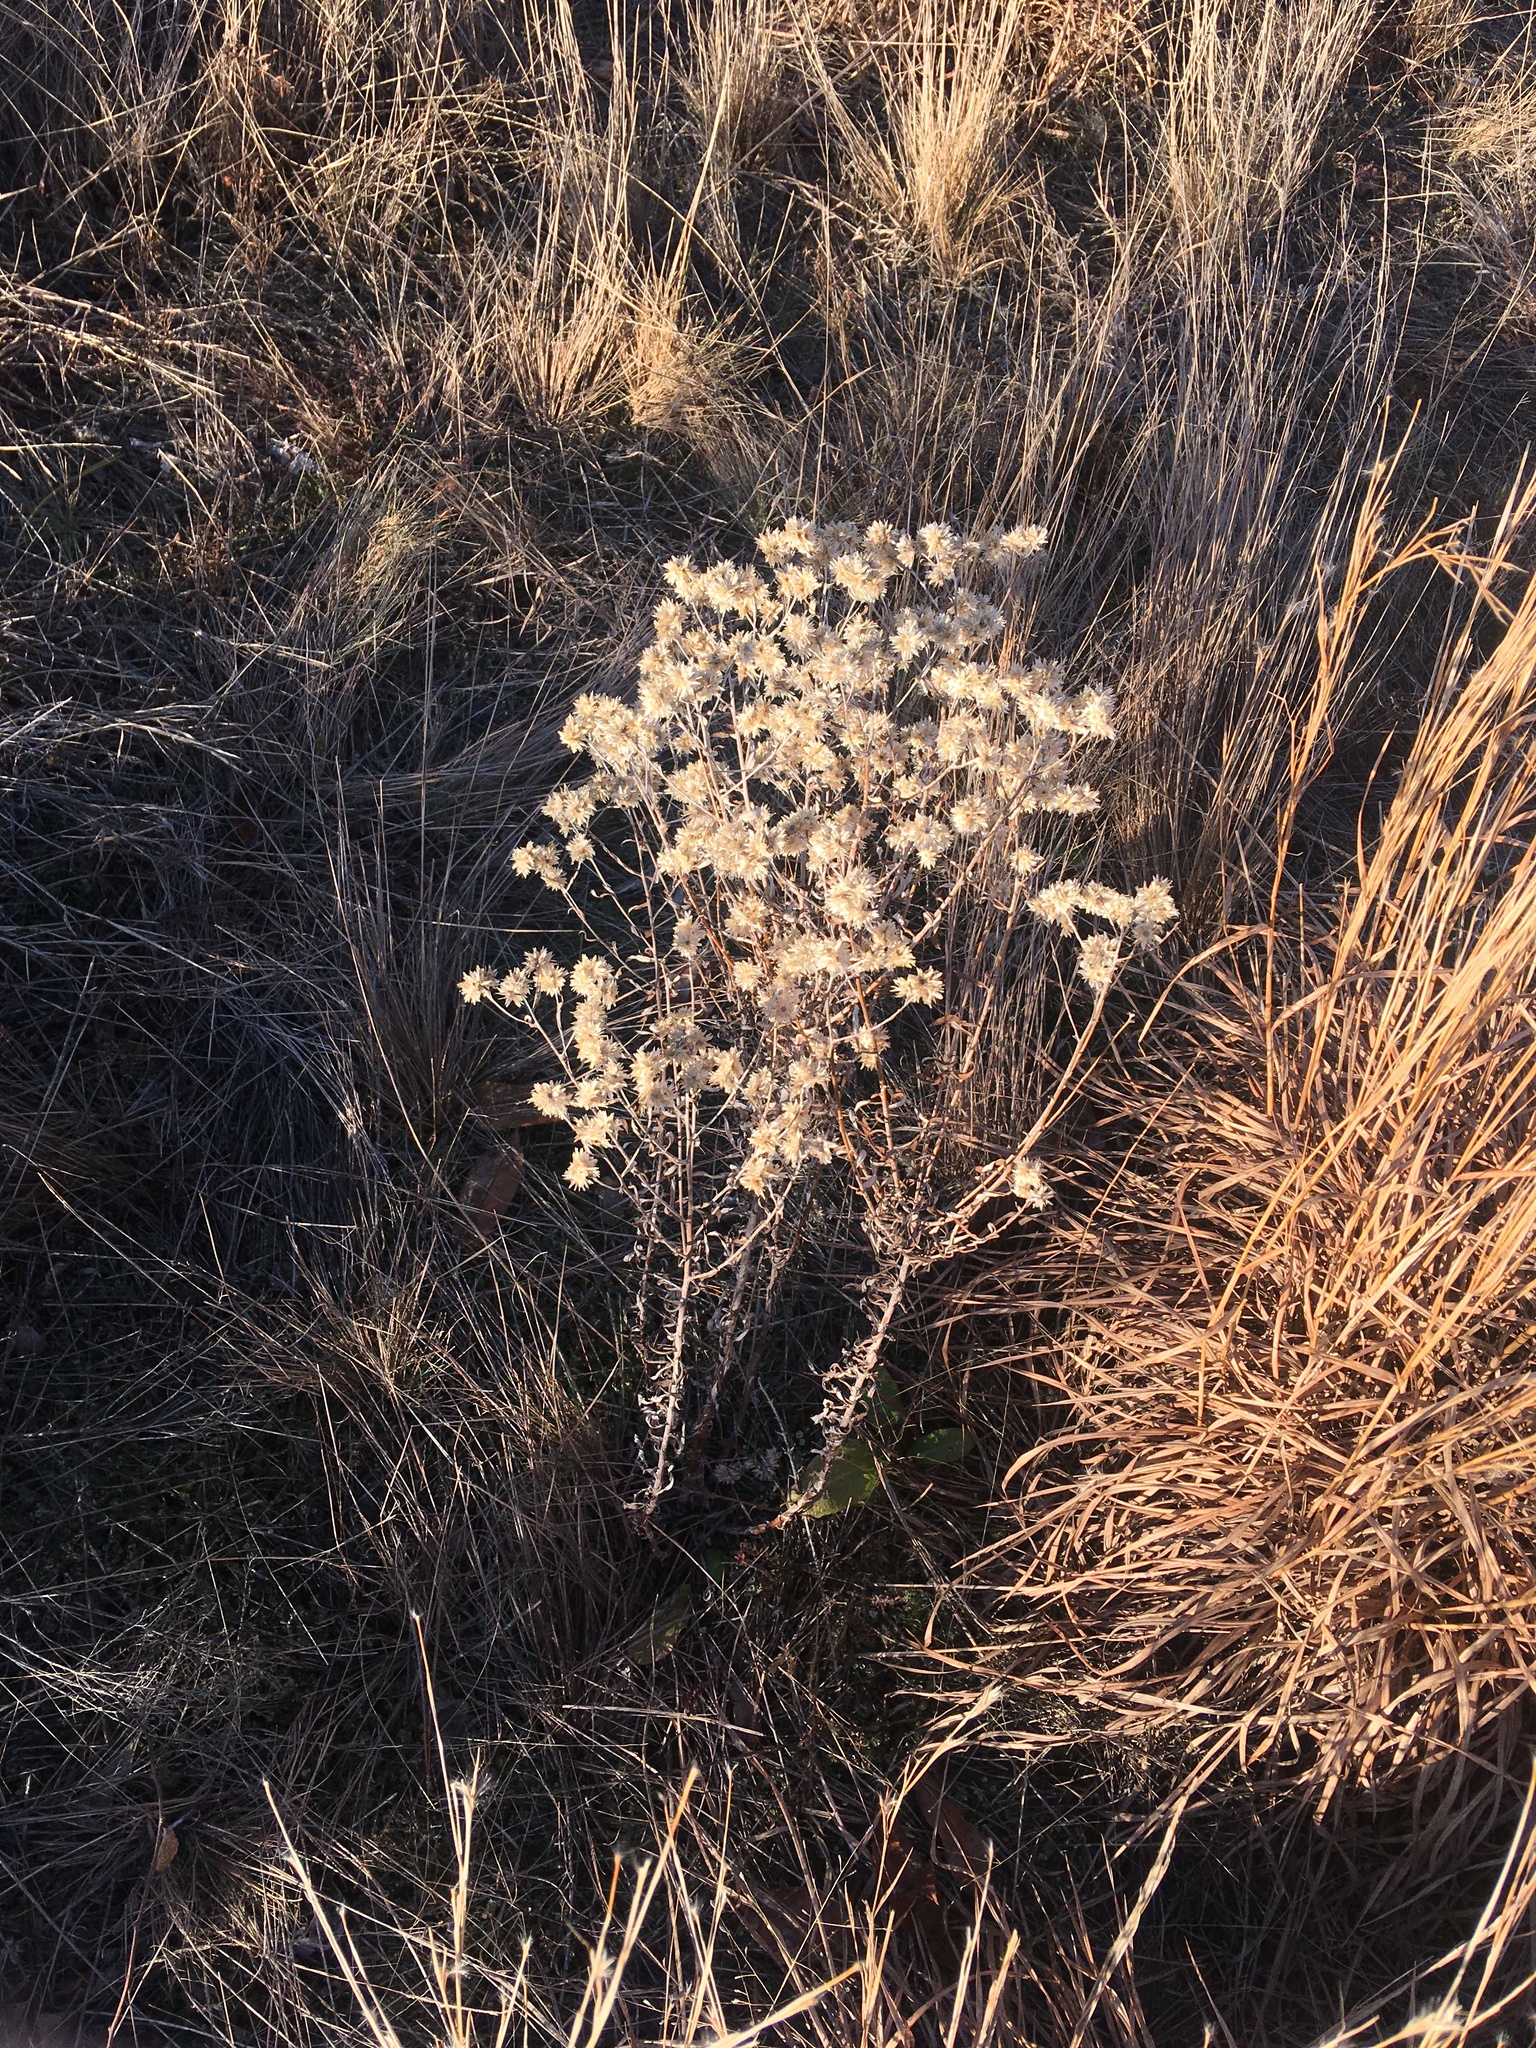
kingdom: Plantae
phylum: Tracheophyta
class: Magnoliopsida
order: Asterales
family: Asteraceae
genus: Pseudognaphalium
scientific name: Pseudognaphalium obtusifolium
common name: Eastern rabbit-tobacco
